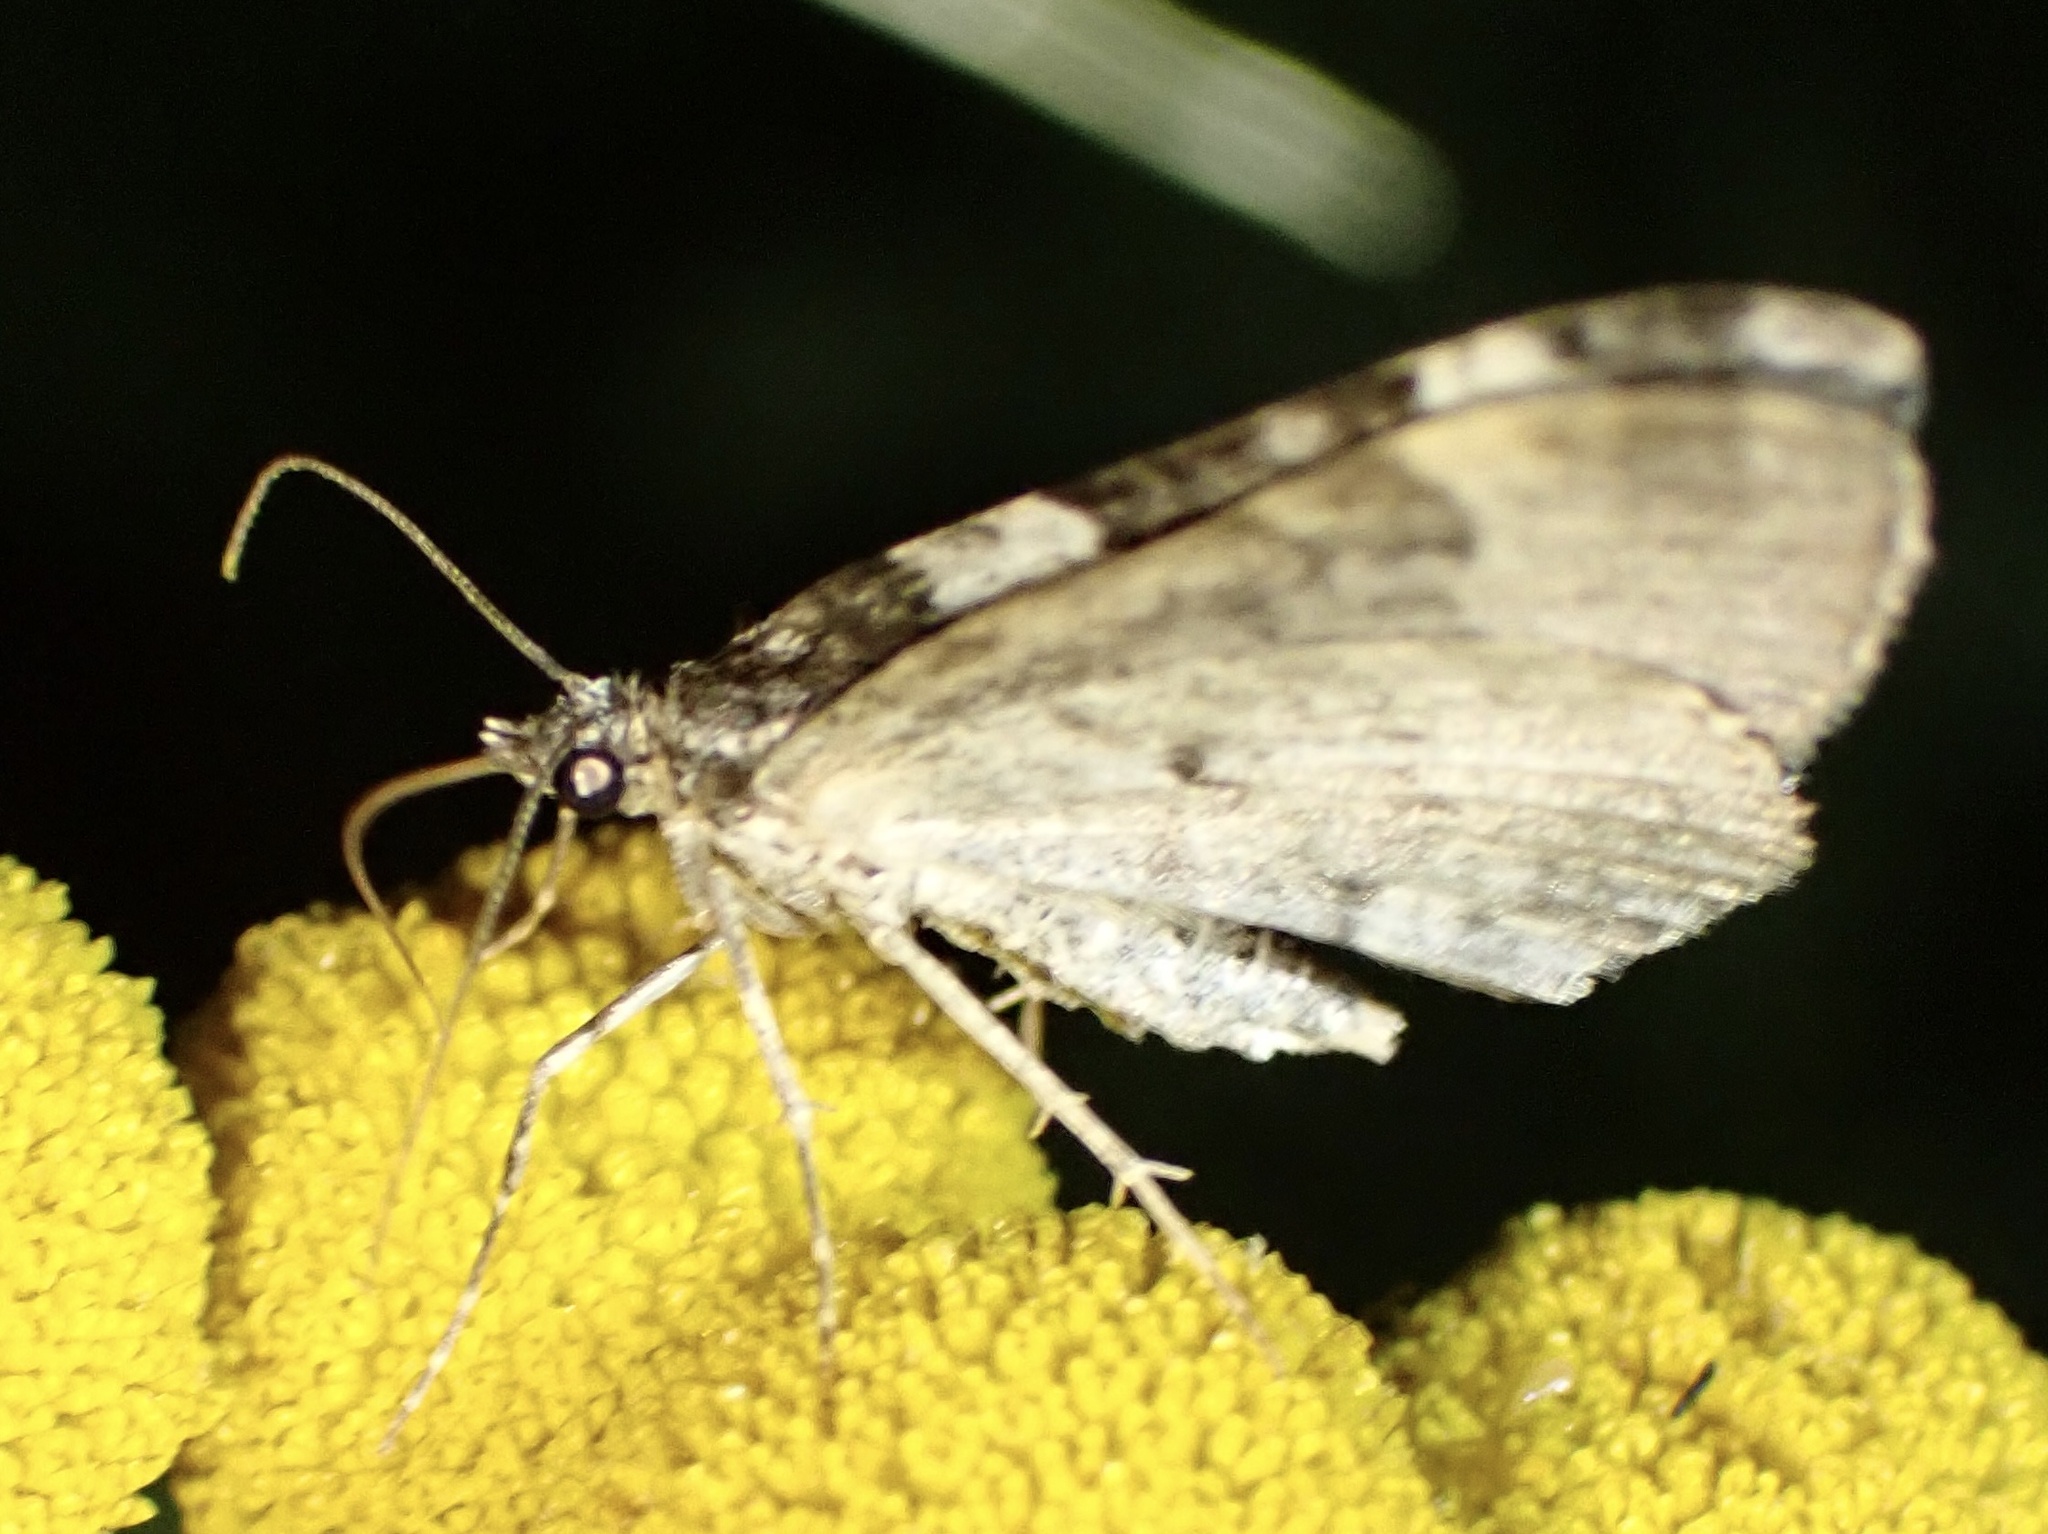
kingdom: Animalia
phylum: Arthropoda
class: Insecta
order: Lepidoptera
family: Geometridae
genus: Xanthorhoe
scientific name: Xanthorhoe fluctuata
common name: Garden carpet
